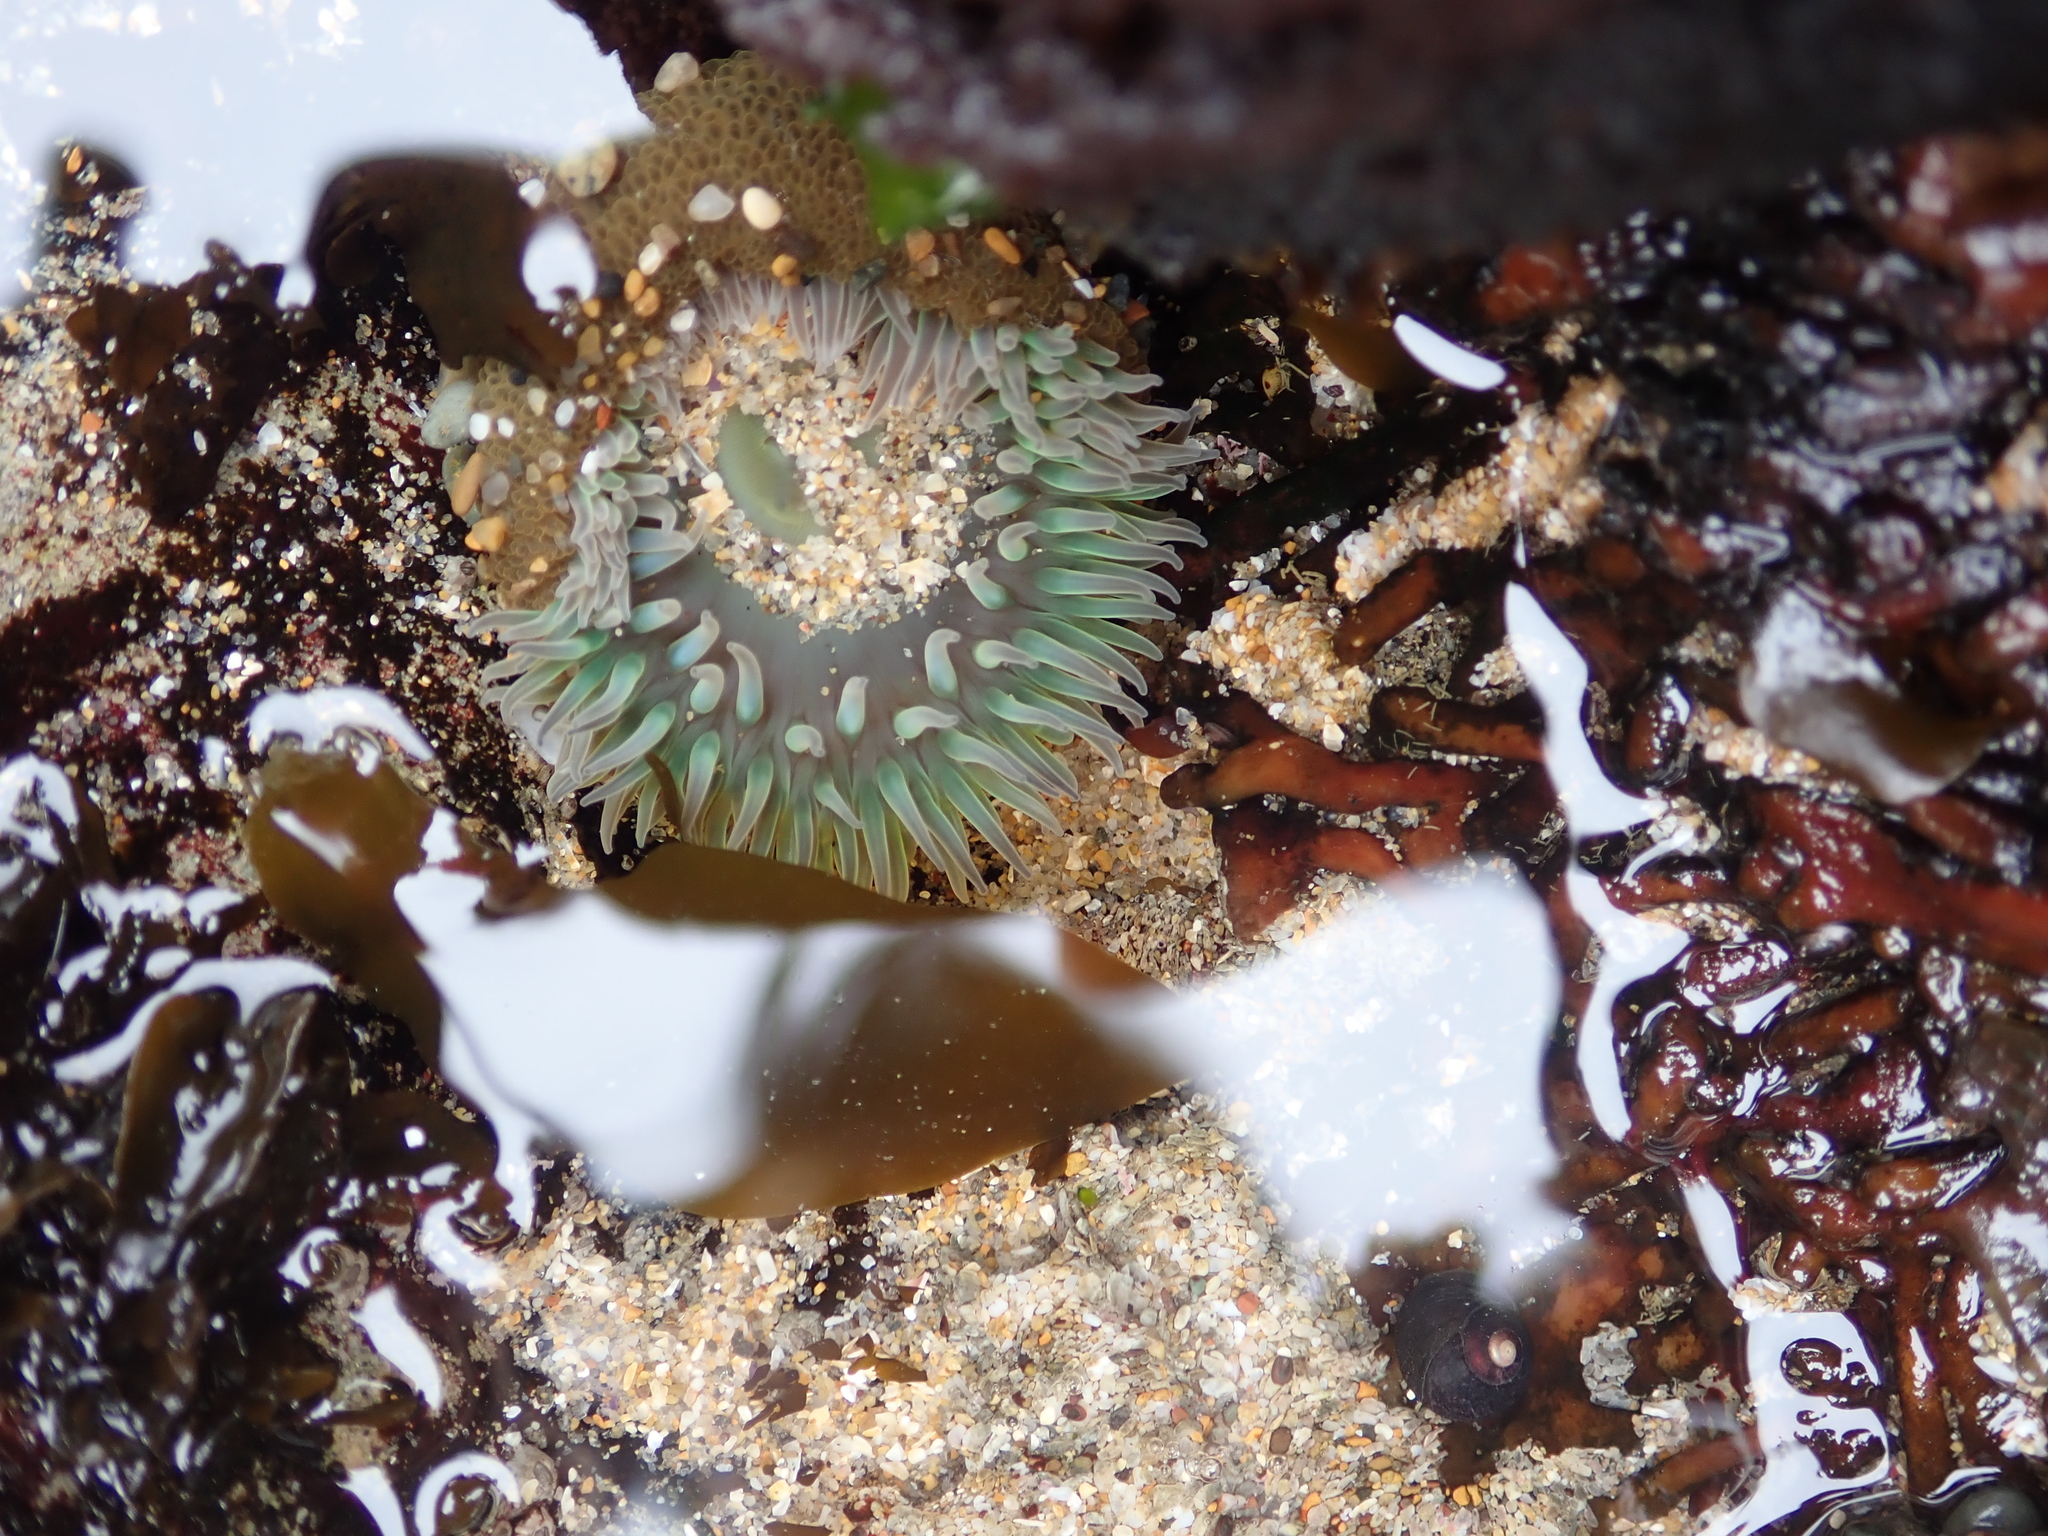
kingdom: Animalia
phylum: Cnidaria
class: Anthozoa
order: Actiniaria
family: Actiniidae
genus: Anthopleura
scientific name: Anthopleura xanthogrammica
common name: Giant green anemone
